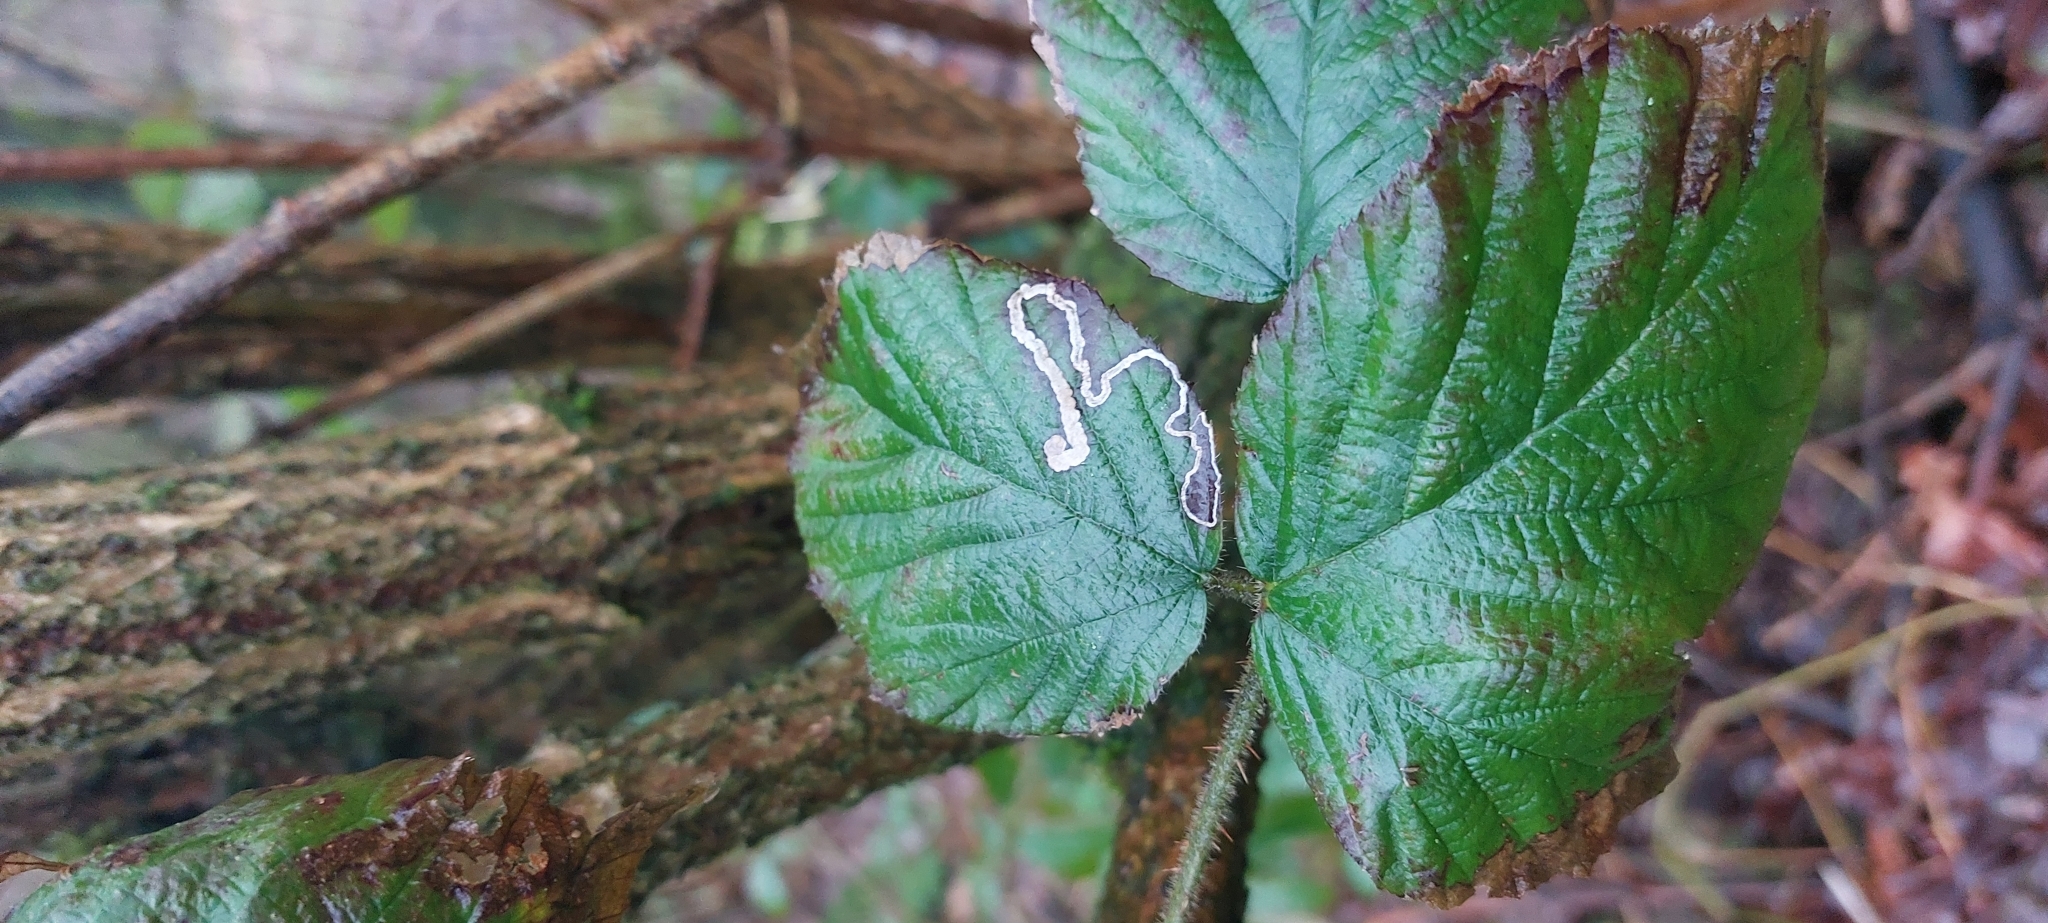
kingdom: Animalia
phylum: Arthropoda
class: Insecta
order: Lepidoptera
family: Nepticulidae
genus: Stigmella
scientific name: Stigmella aurella
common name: Golden pigmy
